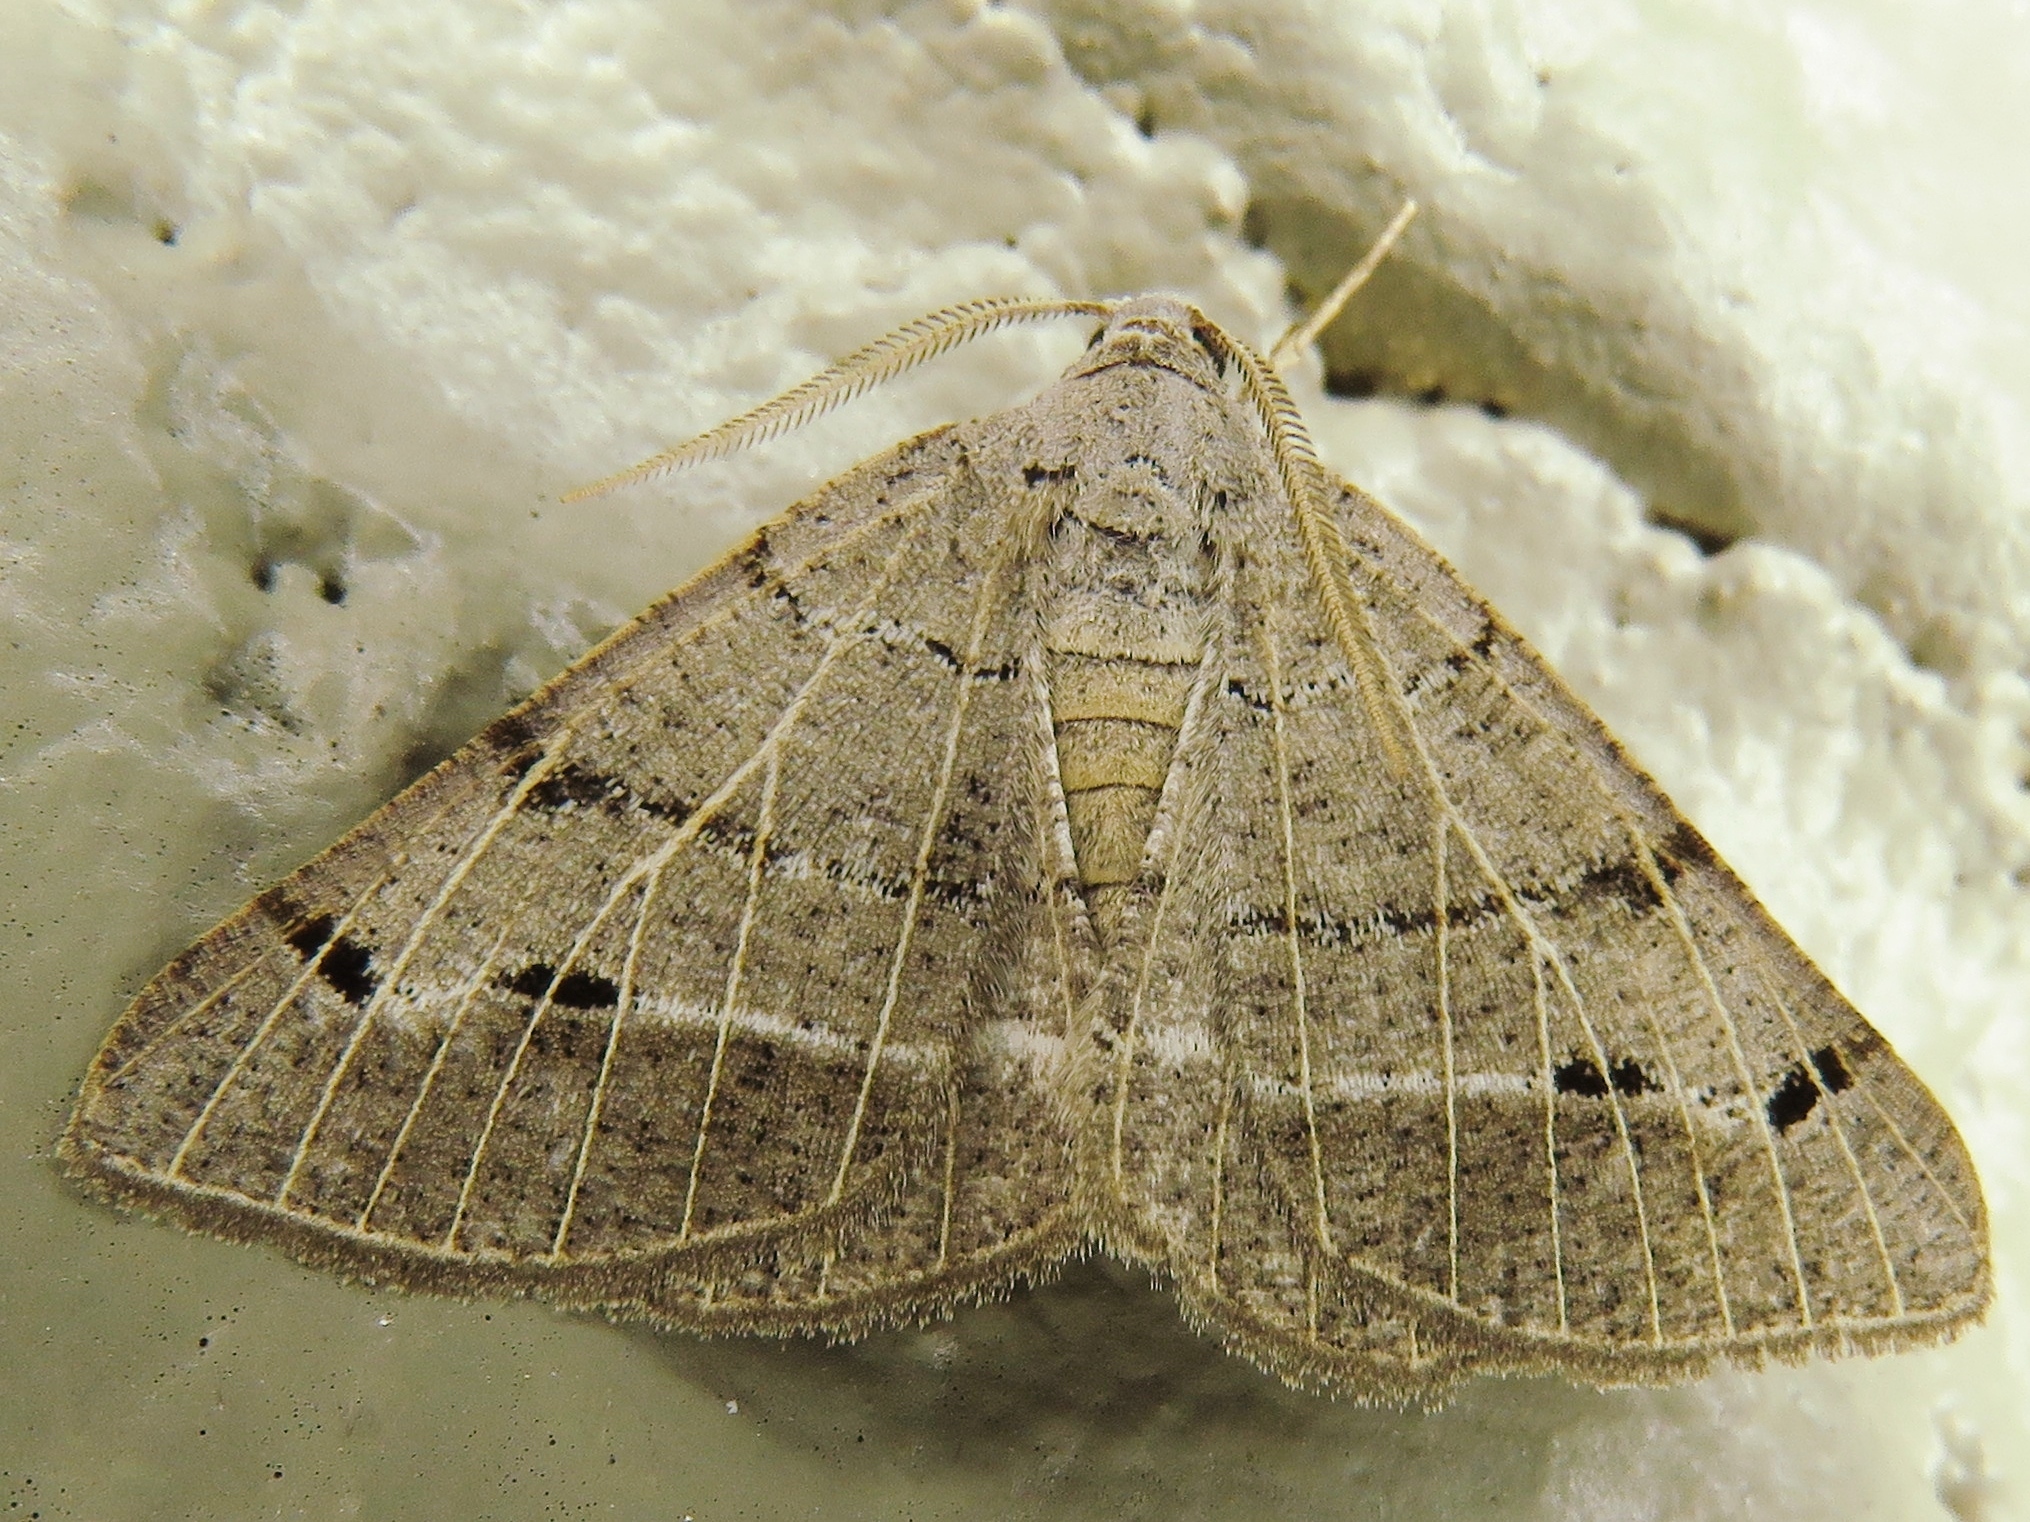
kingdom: Animalia
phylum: Arthropoda
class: Insecta
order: Lepidoptera
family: Geometridae
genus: Isturgia
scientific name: Isturgia dislocaria
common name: Pale-viened enconista
